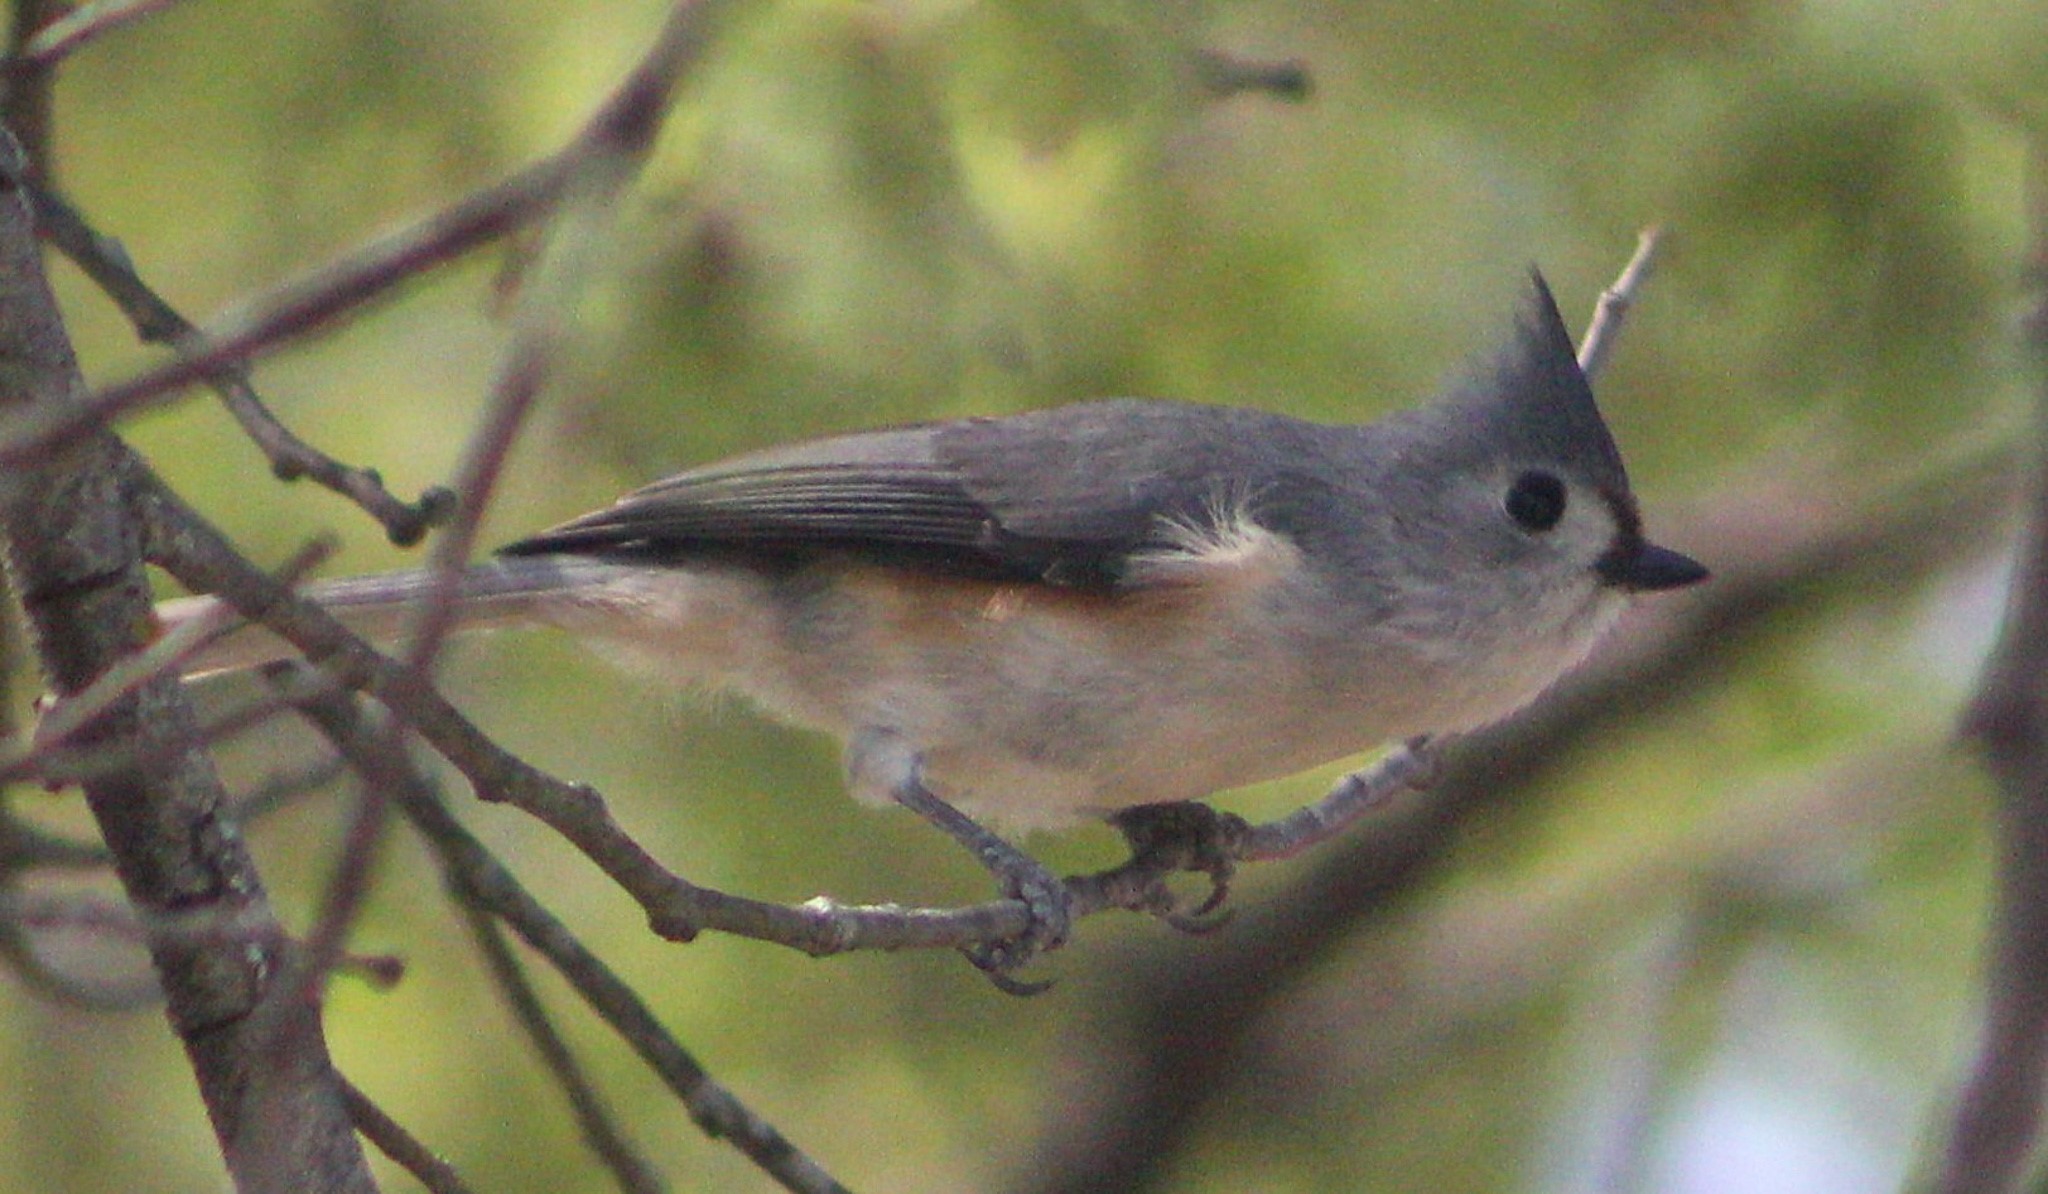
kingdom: Animalia
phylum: Chordata
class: Aves
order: Passeriformes
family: Paridae
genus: Baeolophus
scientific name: Baeolophus bicolor
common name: Tufted titmouse
